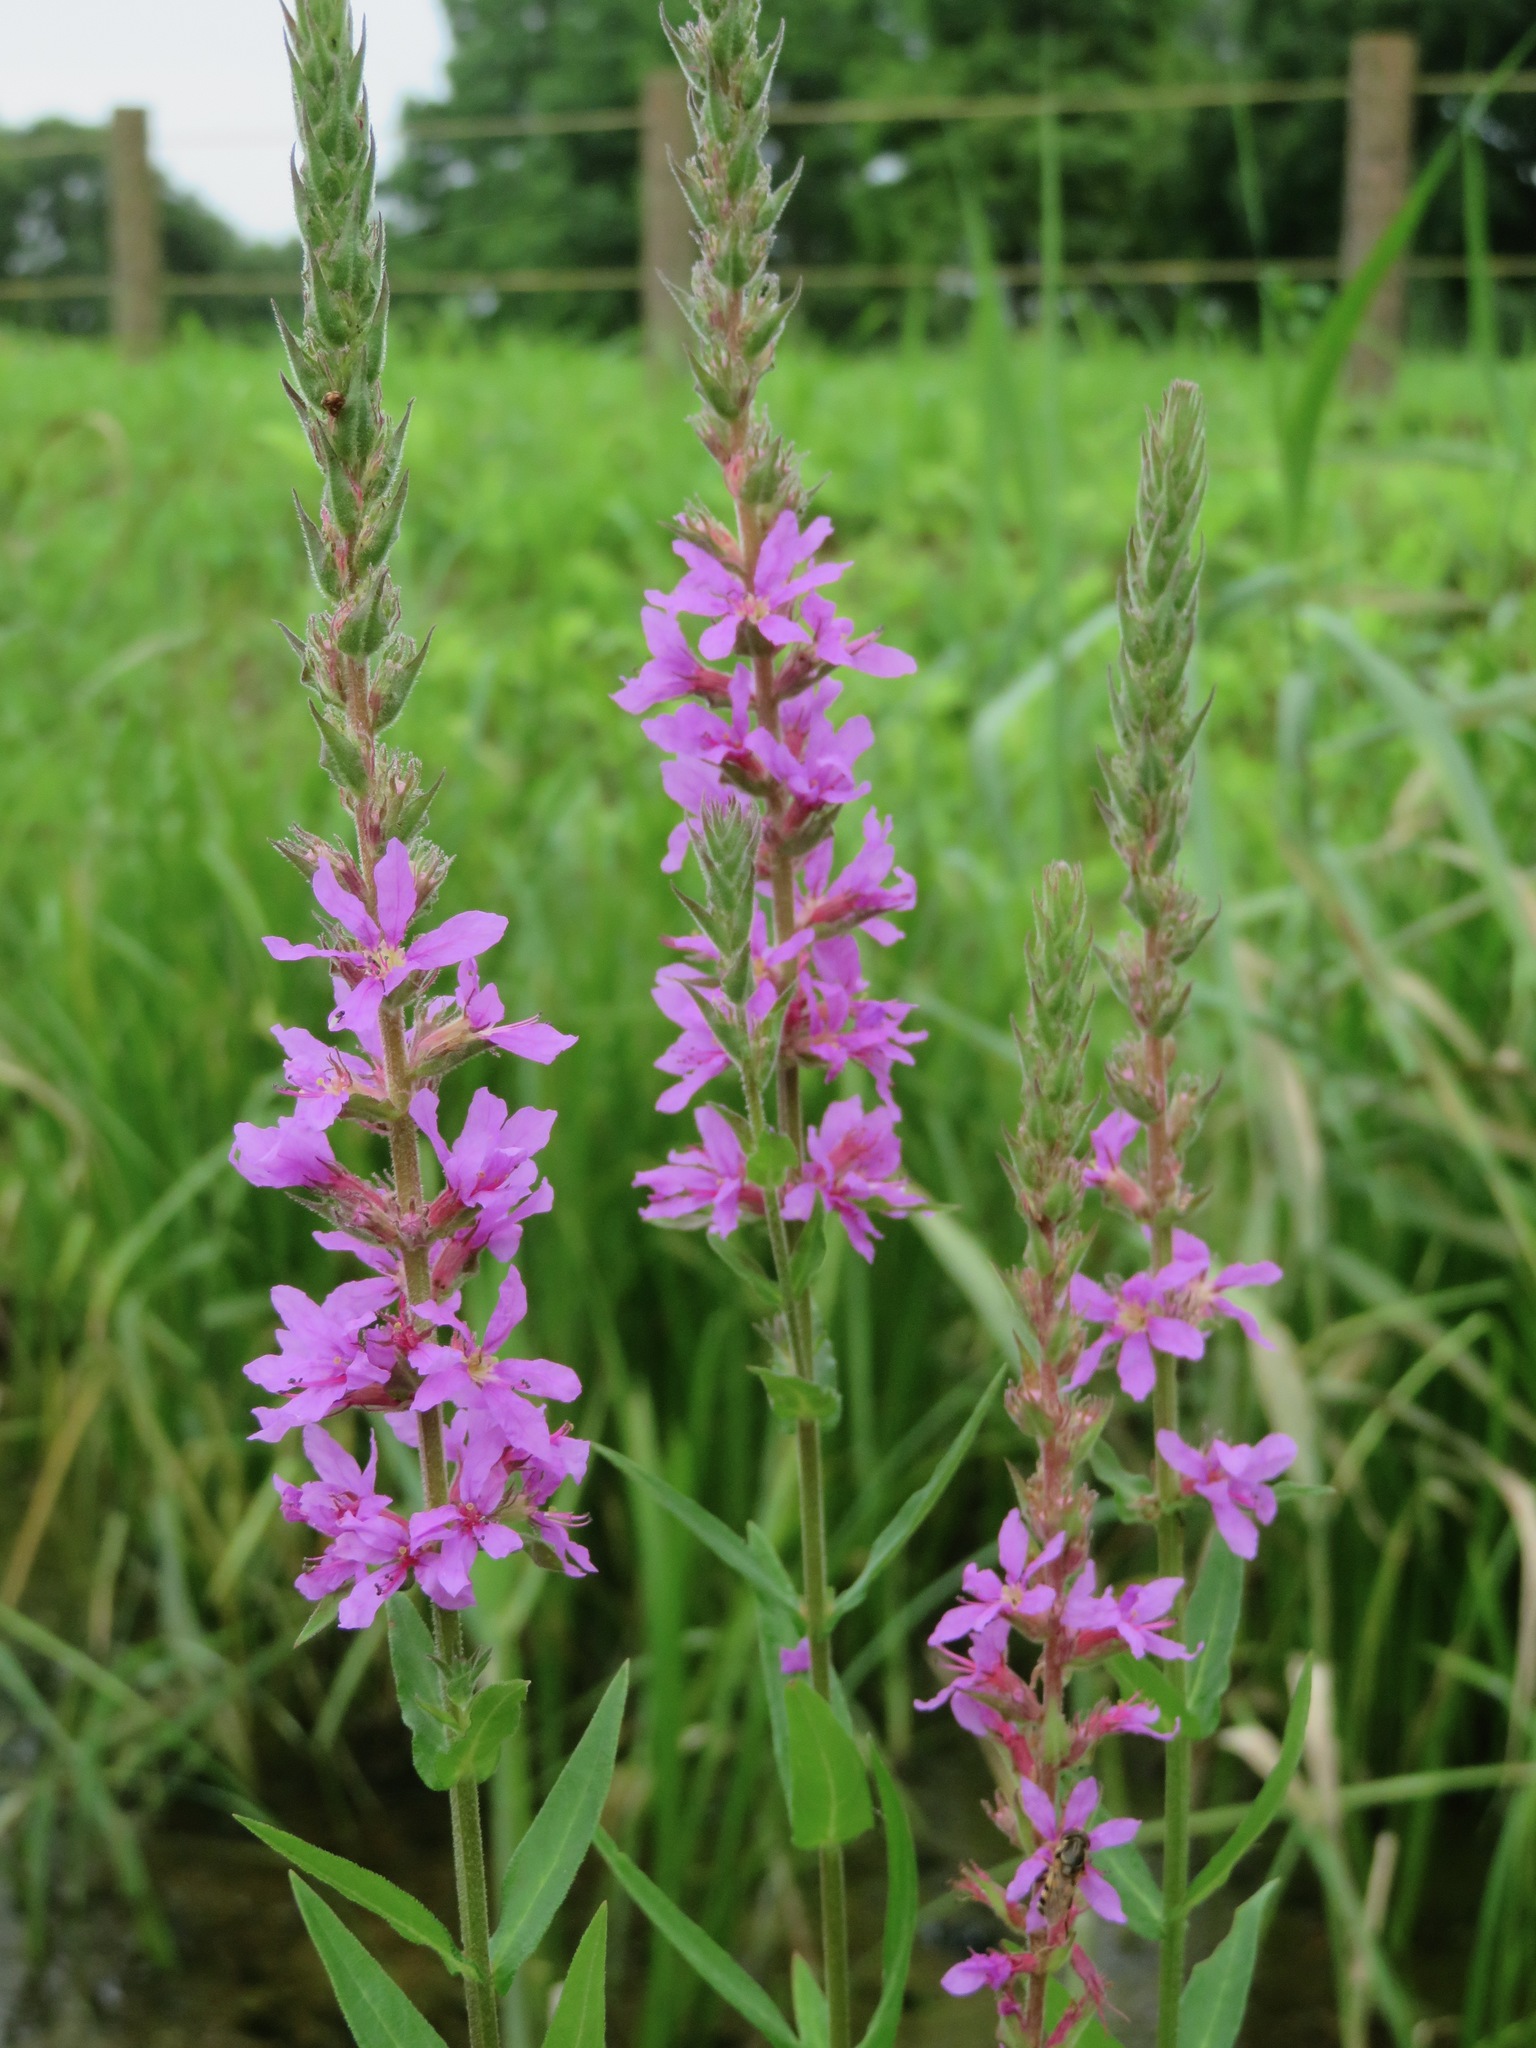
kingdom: Plantae
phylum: Tracheophyta
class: Magnoliopsida
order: Myrtales
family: Lythraceae
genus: Lythrum
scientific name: Lythrum salicaria
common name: Purple loosestrife
